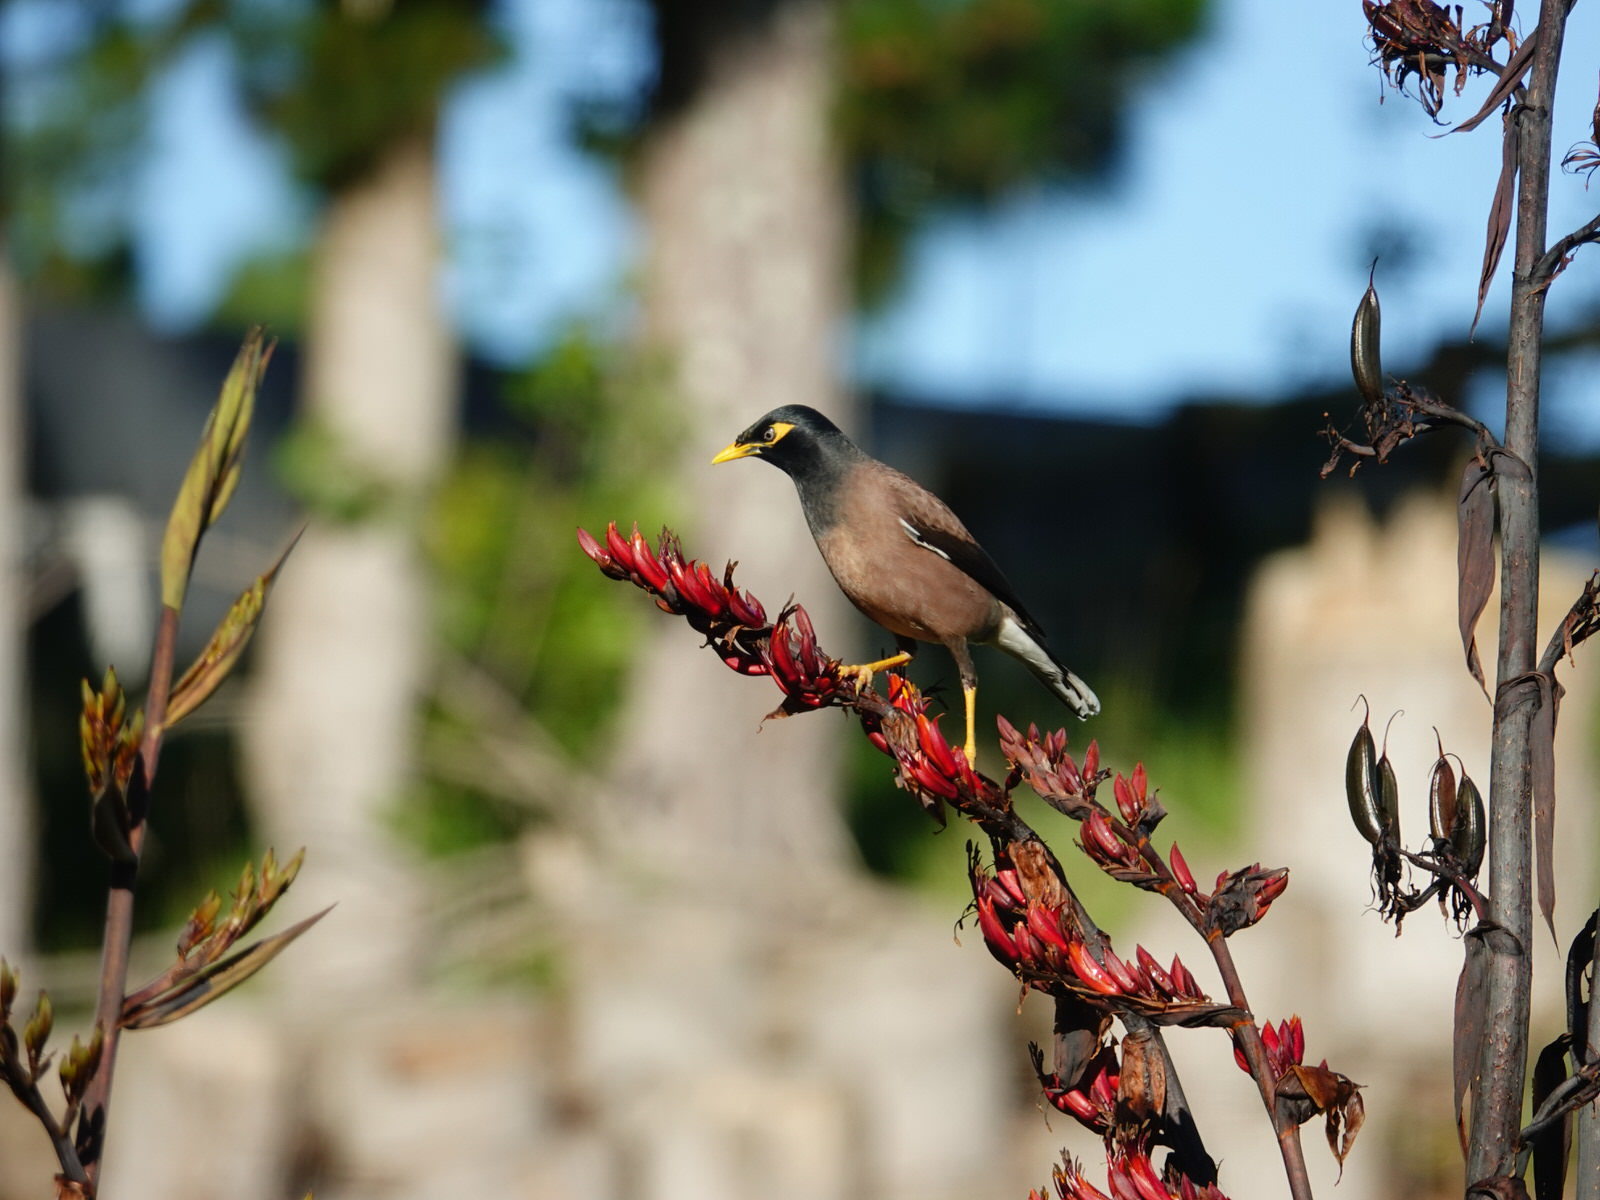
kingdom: Animalia
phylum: Chordata
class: Aves
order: Passeriformes
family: Sturnidae
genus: Acridotheres
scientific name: Acridotheres tristis
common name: Common myna
